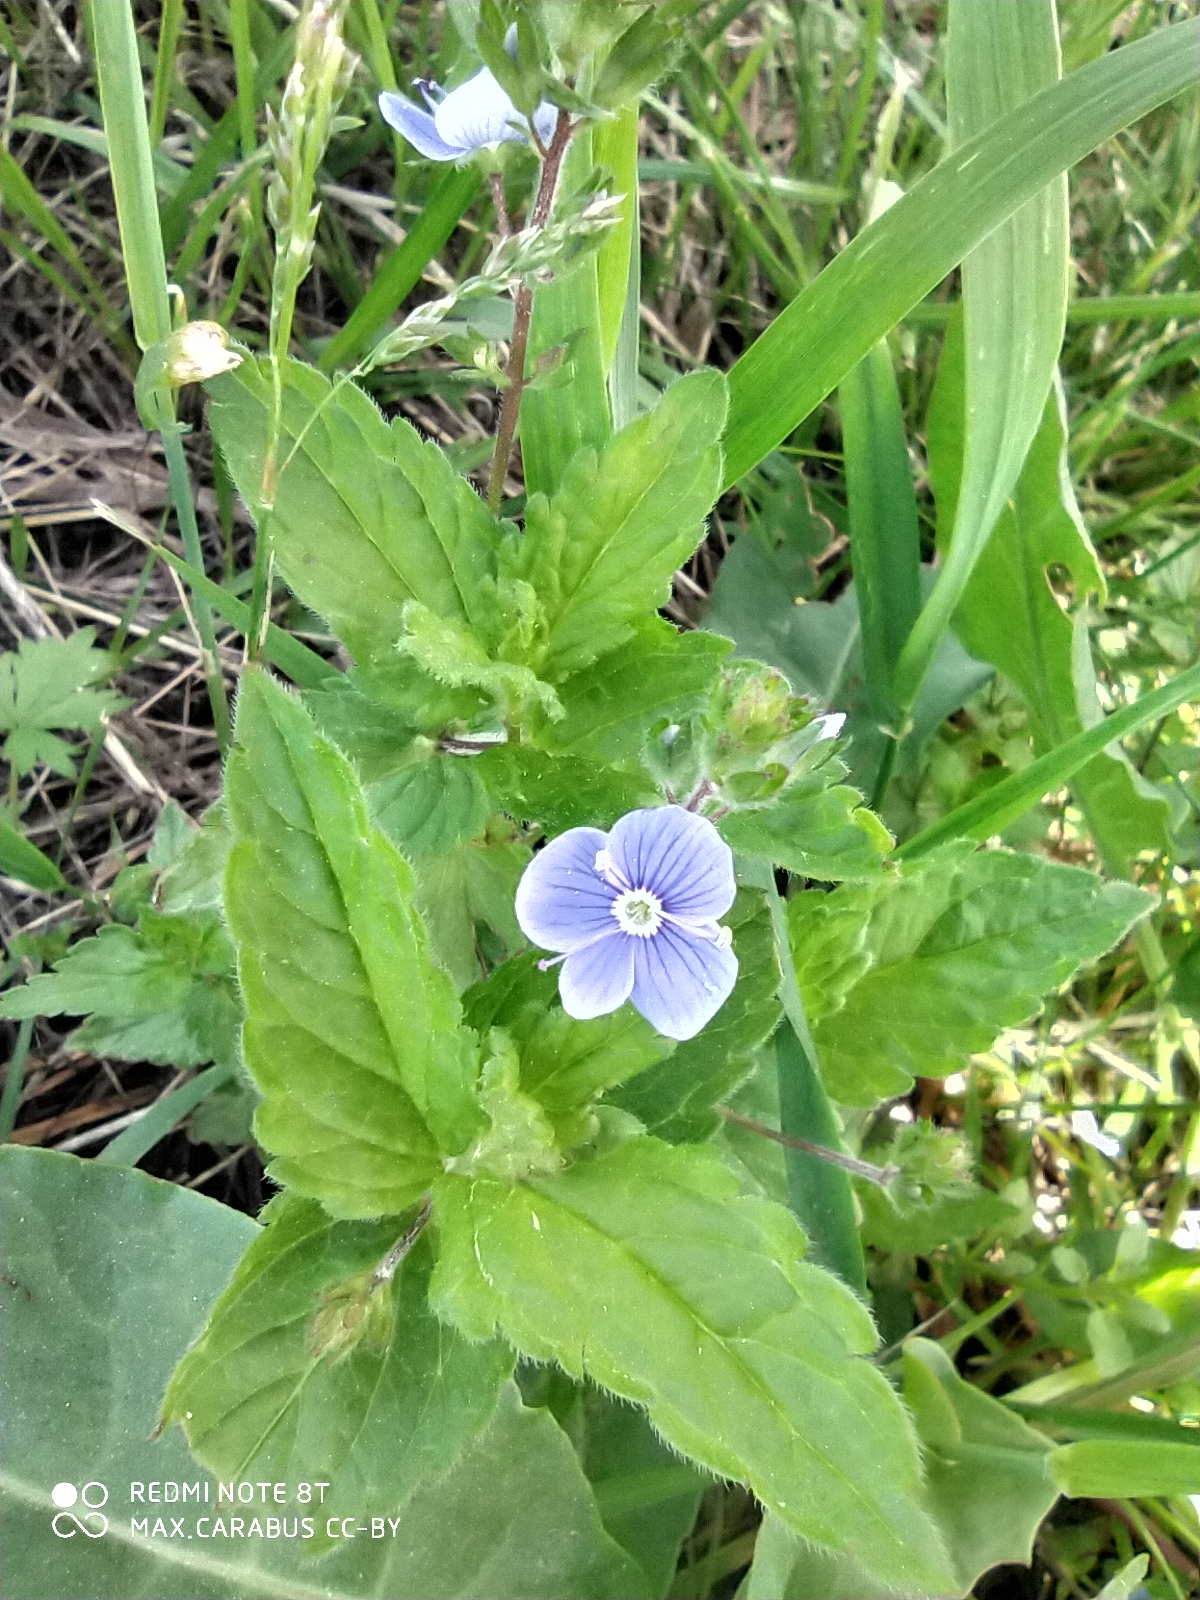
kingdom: Plantae
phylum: Tracheophyta
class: Magnoliopsida
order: Lamiales
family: Plantaginaceae
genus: Veronica
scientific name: Veronica chamaedrys
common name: Germander speedwell
